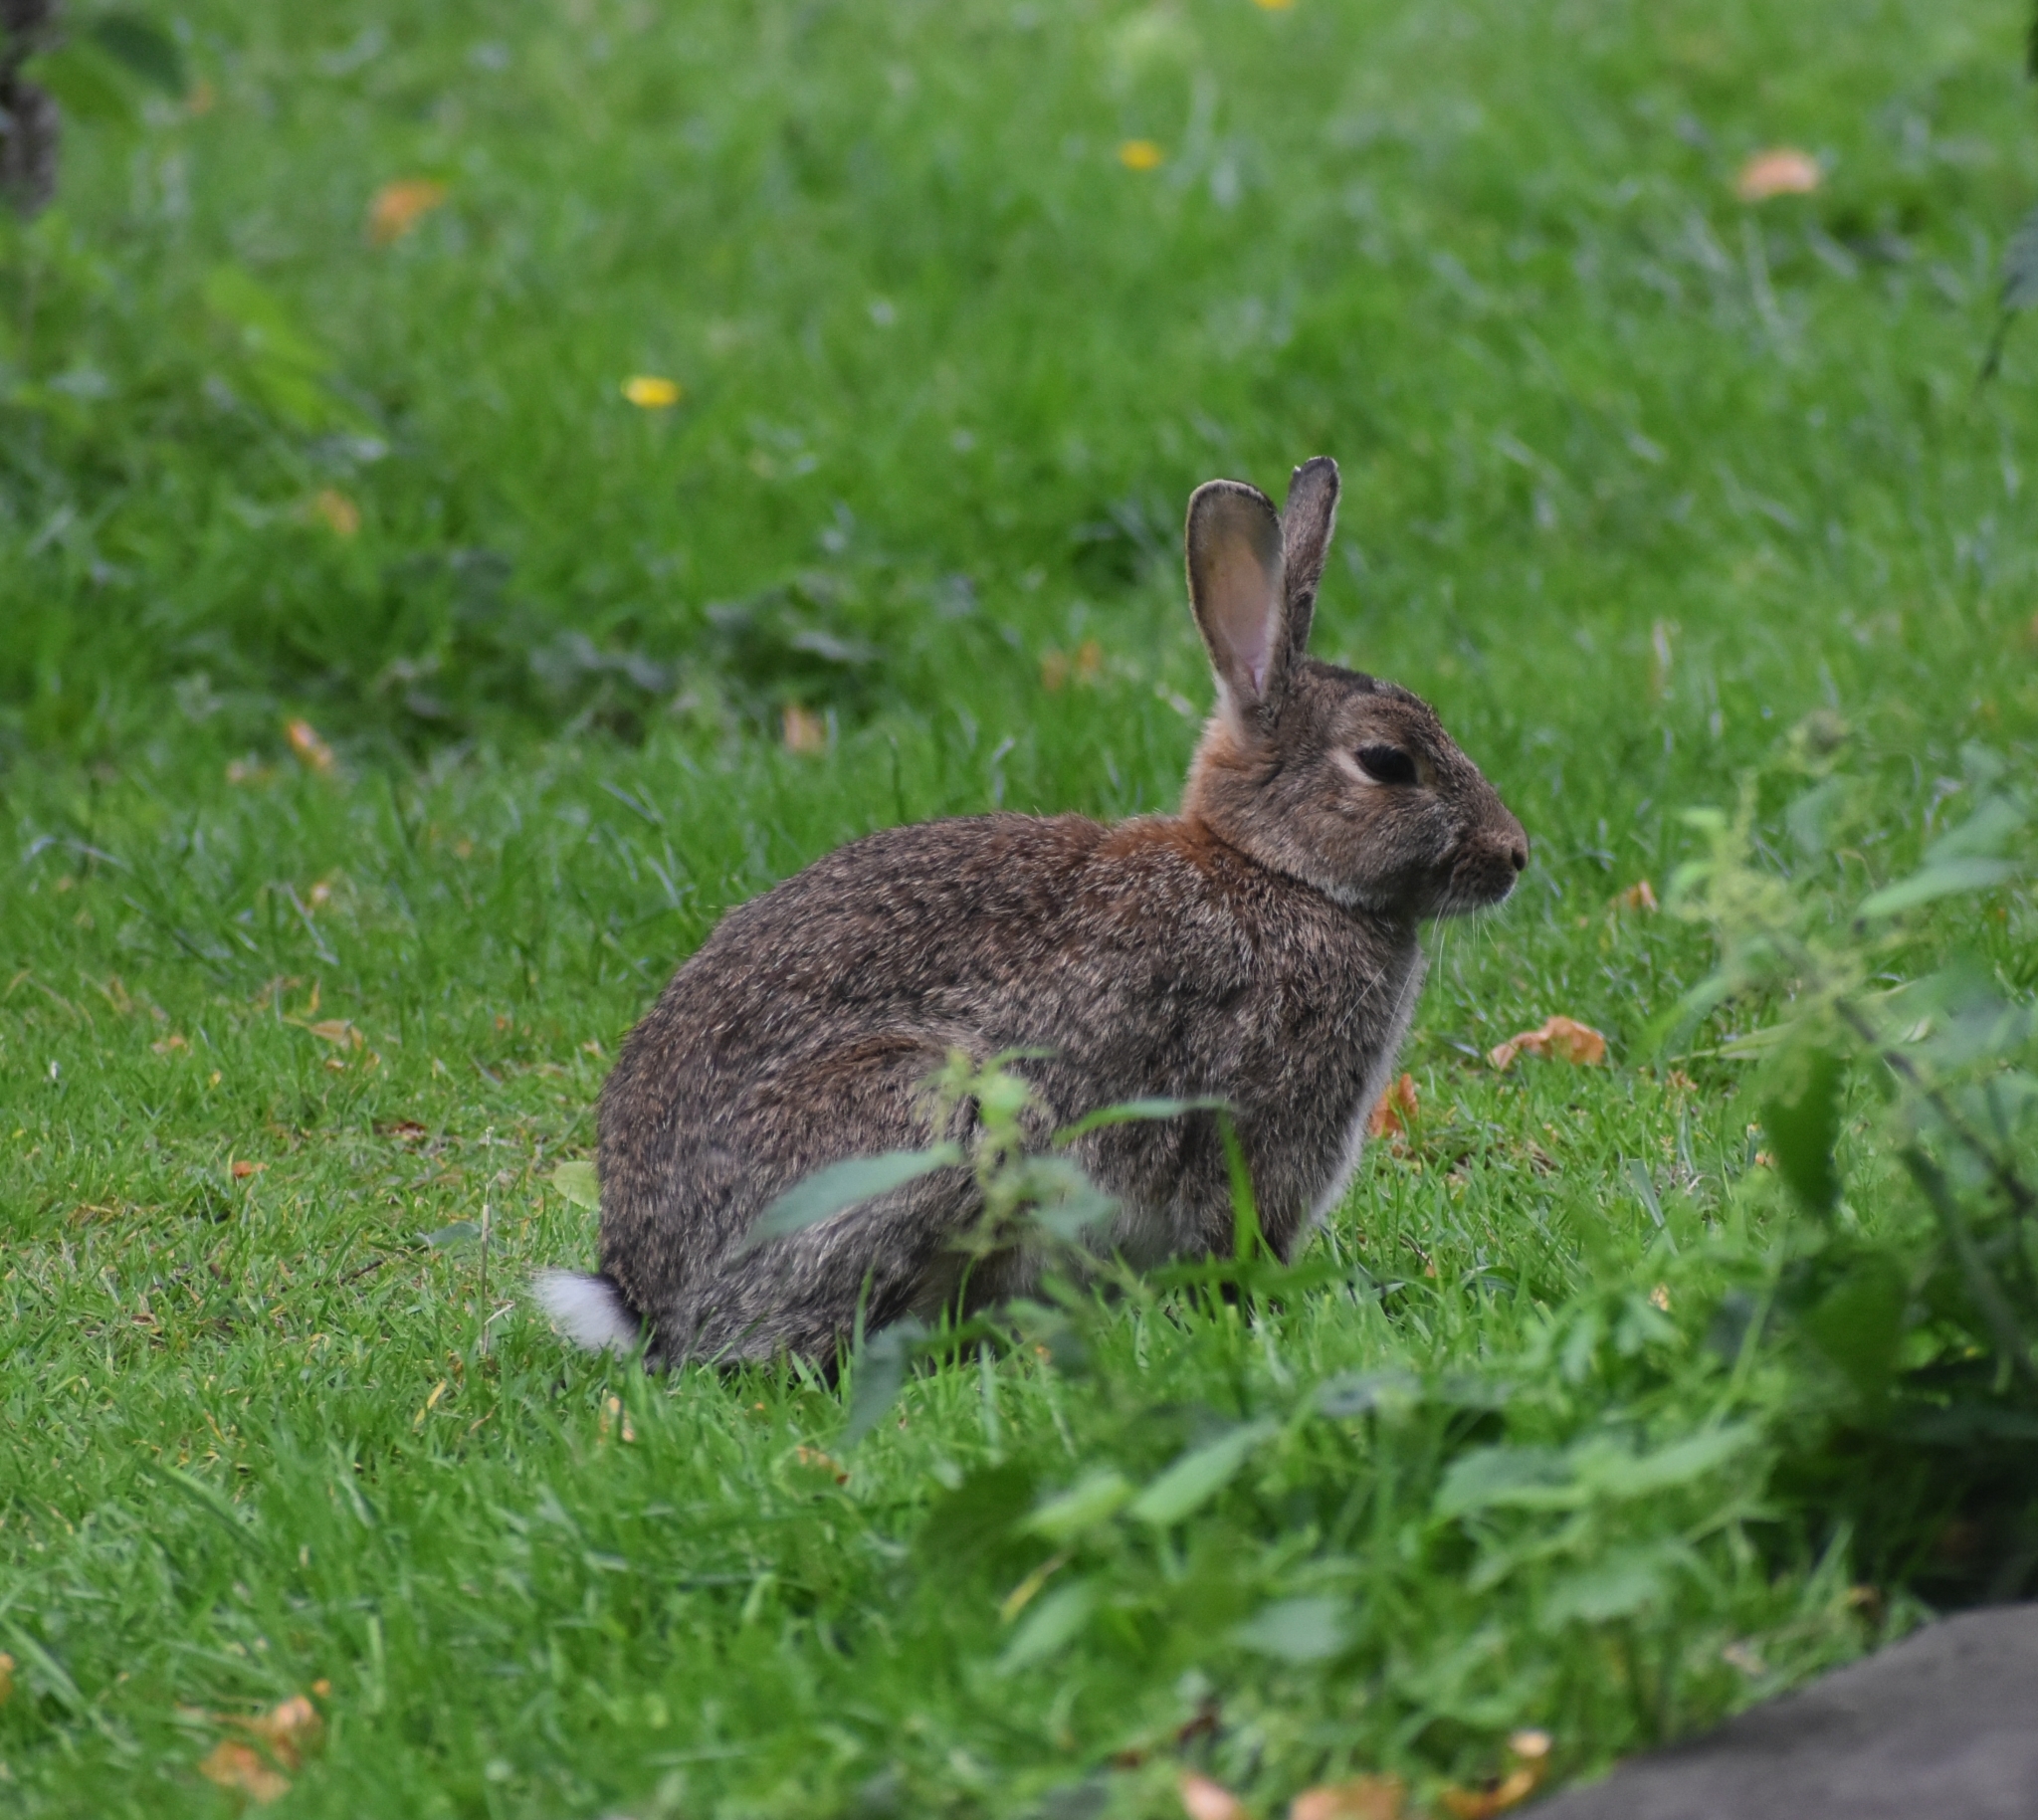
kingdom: Animalia
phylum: Chordata
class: Mammalia
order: Lagomorpha
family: Leporidae
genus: Oryctolagus
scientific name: Oryctolagus cuniculus
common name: European rabbit
